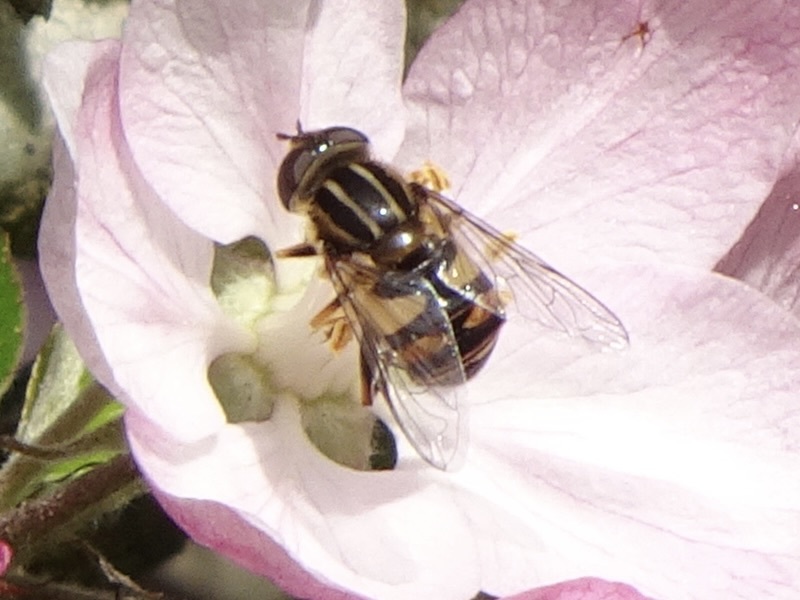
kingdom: Animalia
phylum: Arthropoda
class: Insecta
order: Diptera
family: Syrphidae
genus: Helophilus
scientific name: Helophilus fasciatus
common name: Narrow-headed marsh fly
